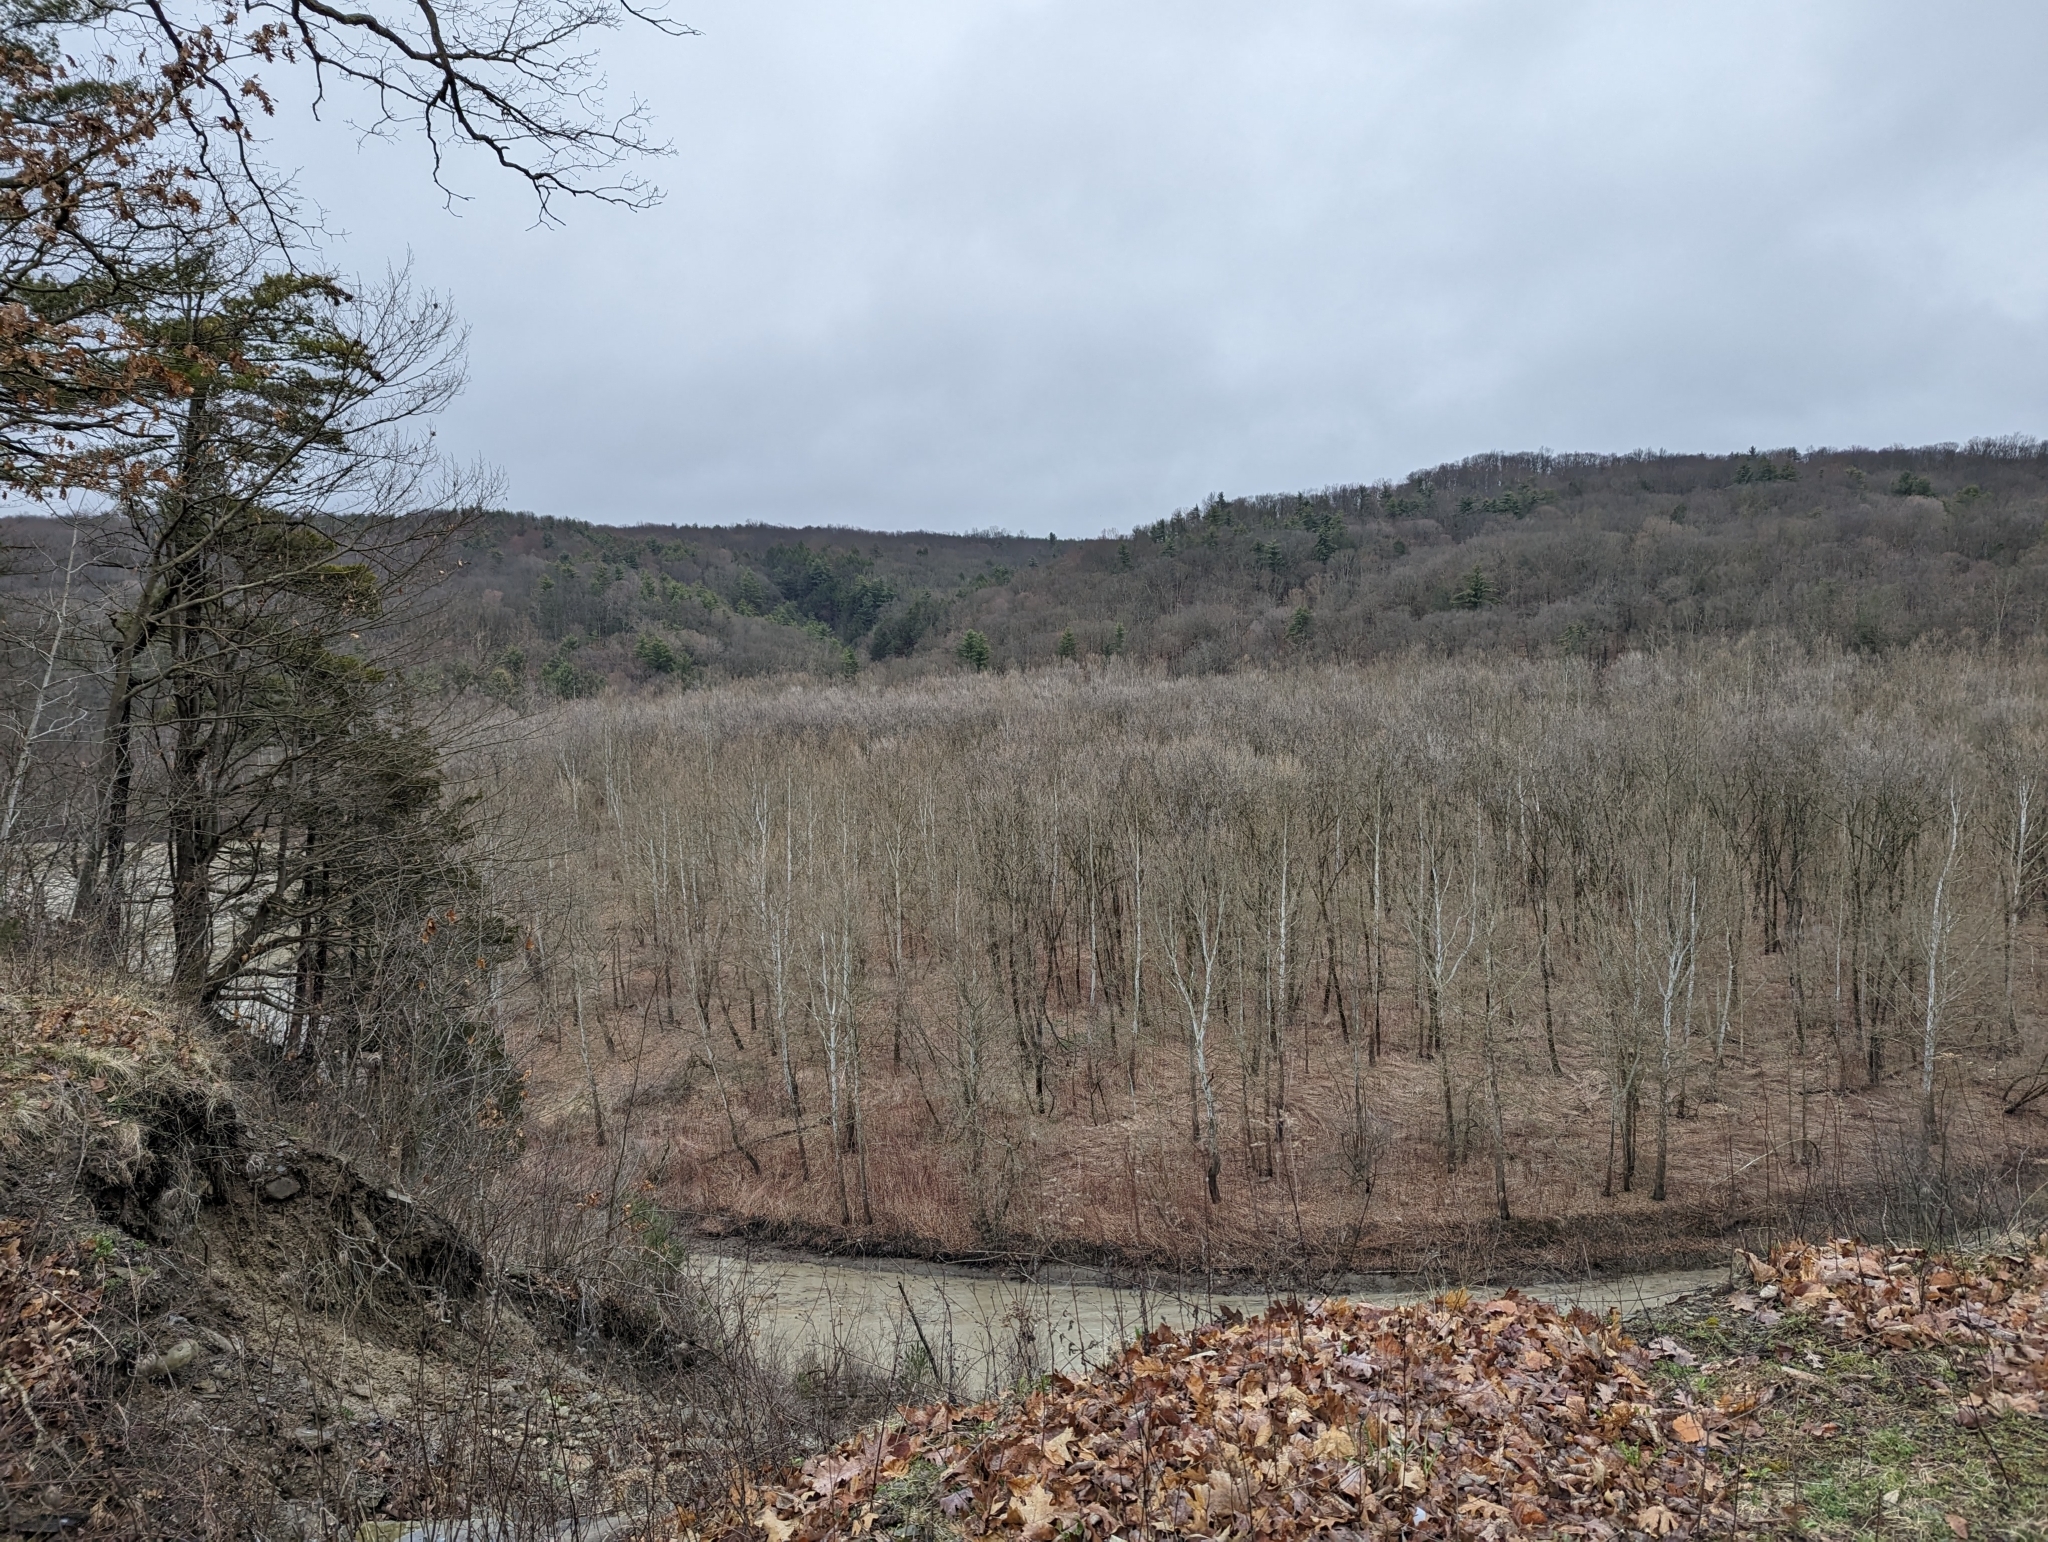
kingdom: Plantae
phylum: Tracheophyta
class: Magnoliopsida
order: Proteales
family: Platanaceae
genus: Platanus
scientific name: Platanus occidentalis
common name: American sycamore
